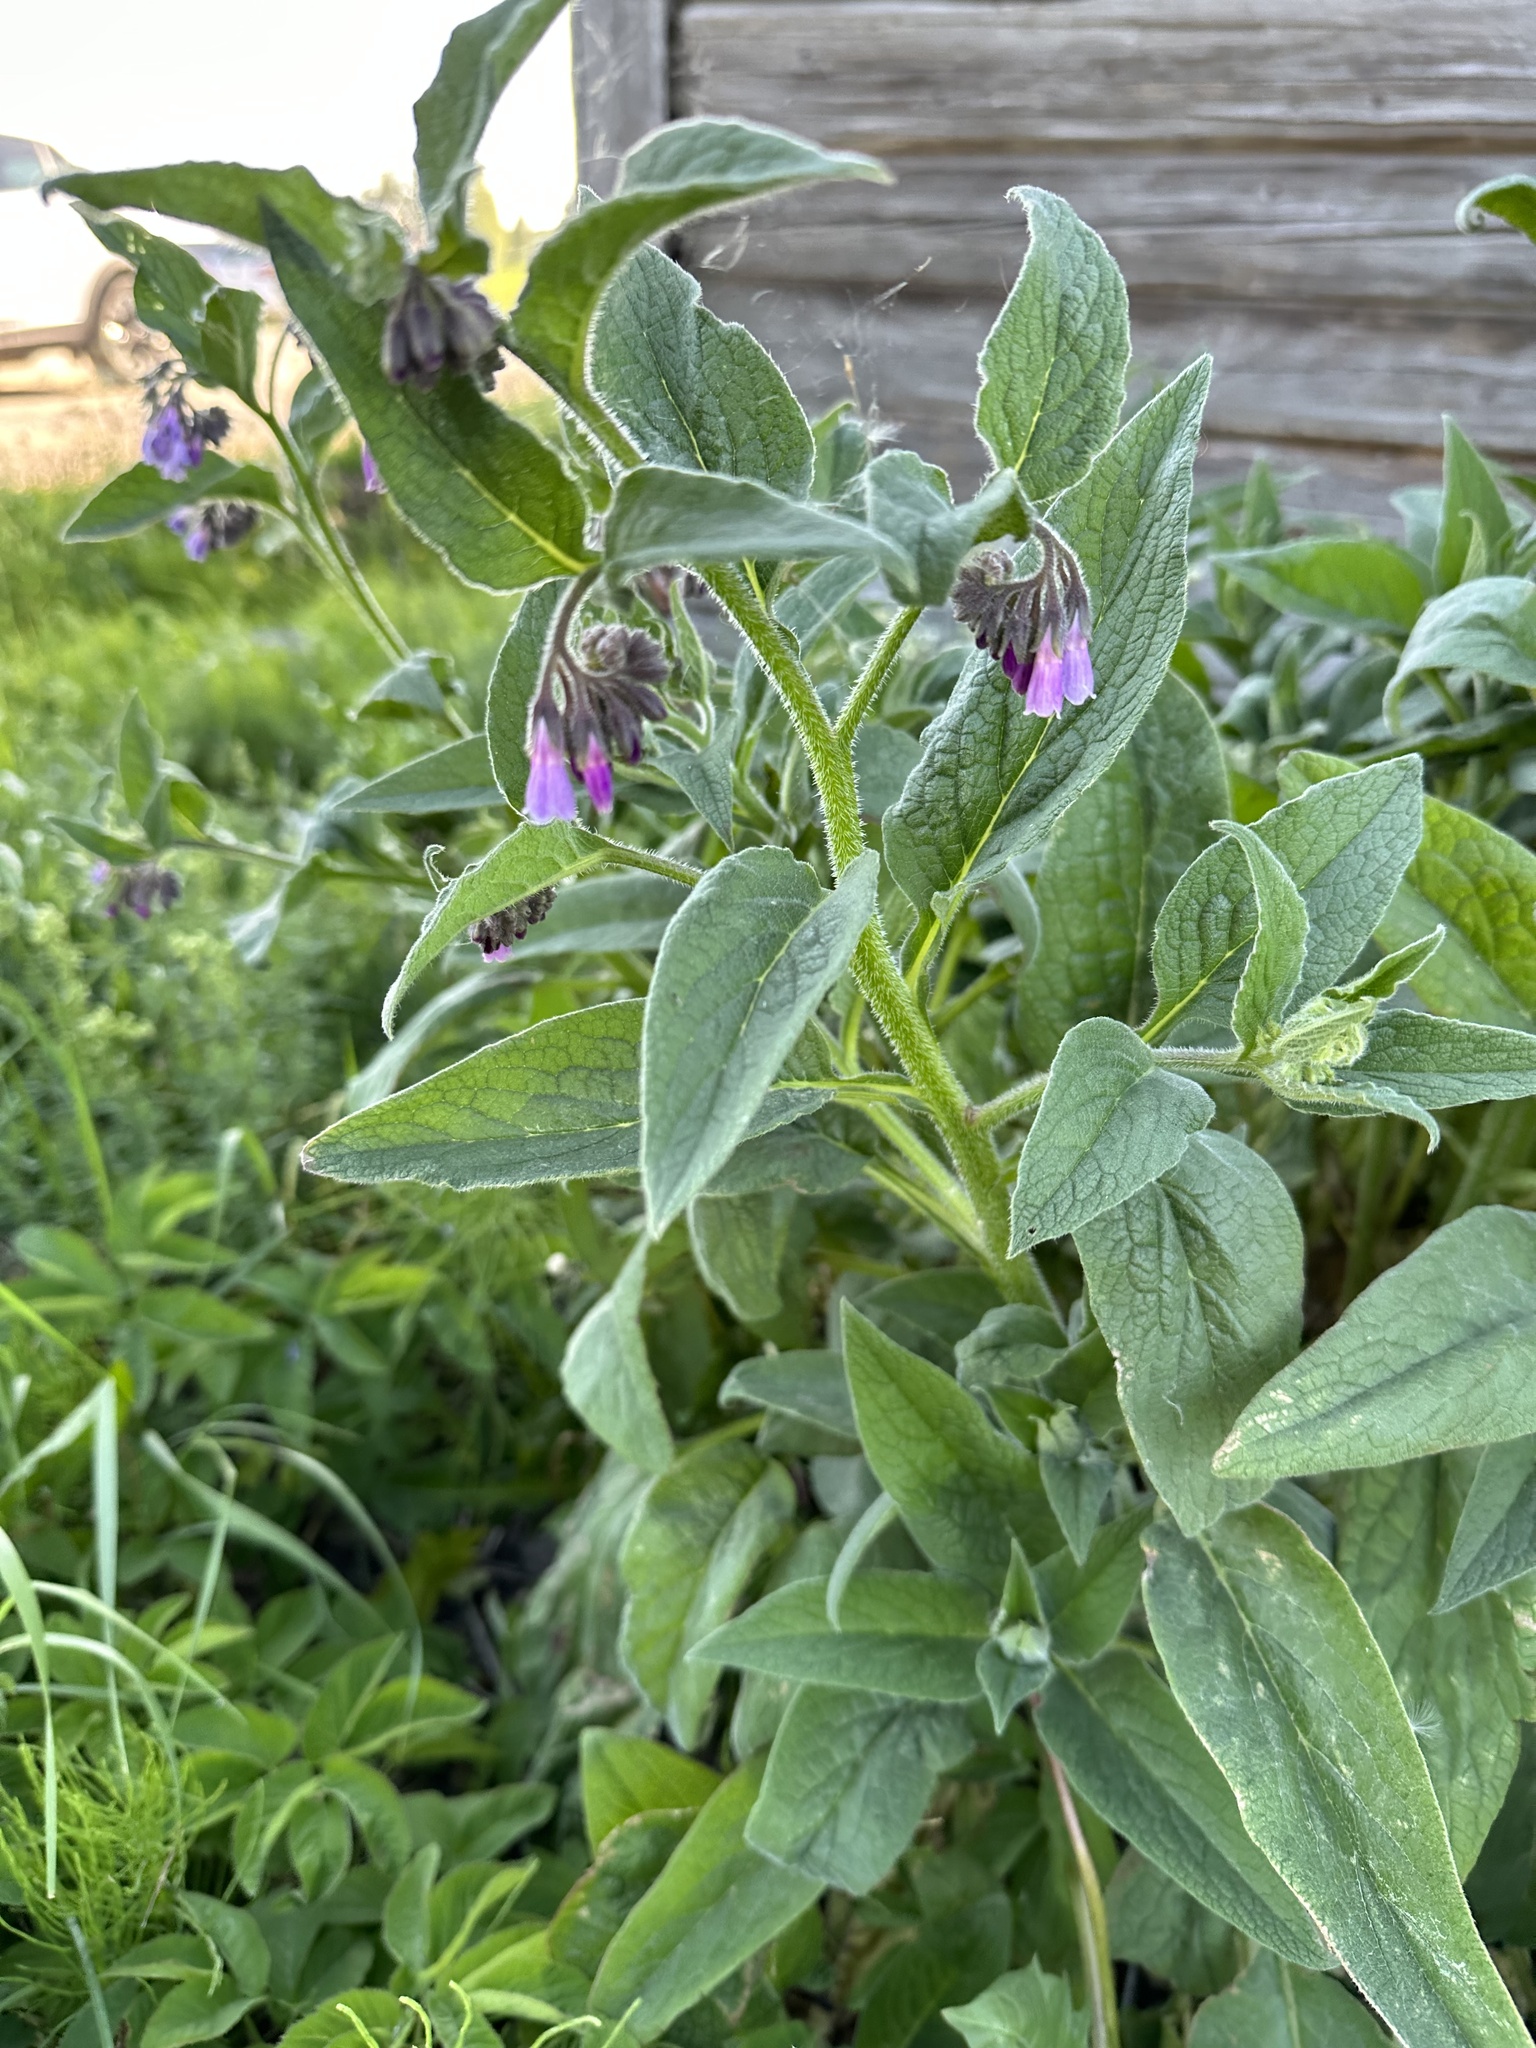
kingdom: Plantae
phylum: Tracheophyta
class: Magnoliopsida
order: Boraginales
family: Boraginaceae
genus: Symphytum
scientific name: Symphytum officinale
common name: Common comfrey
